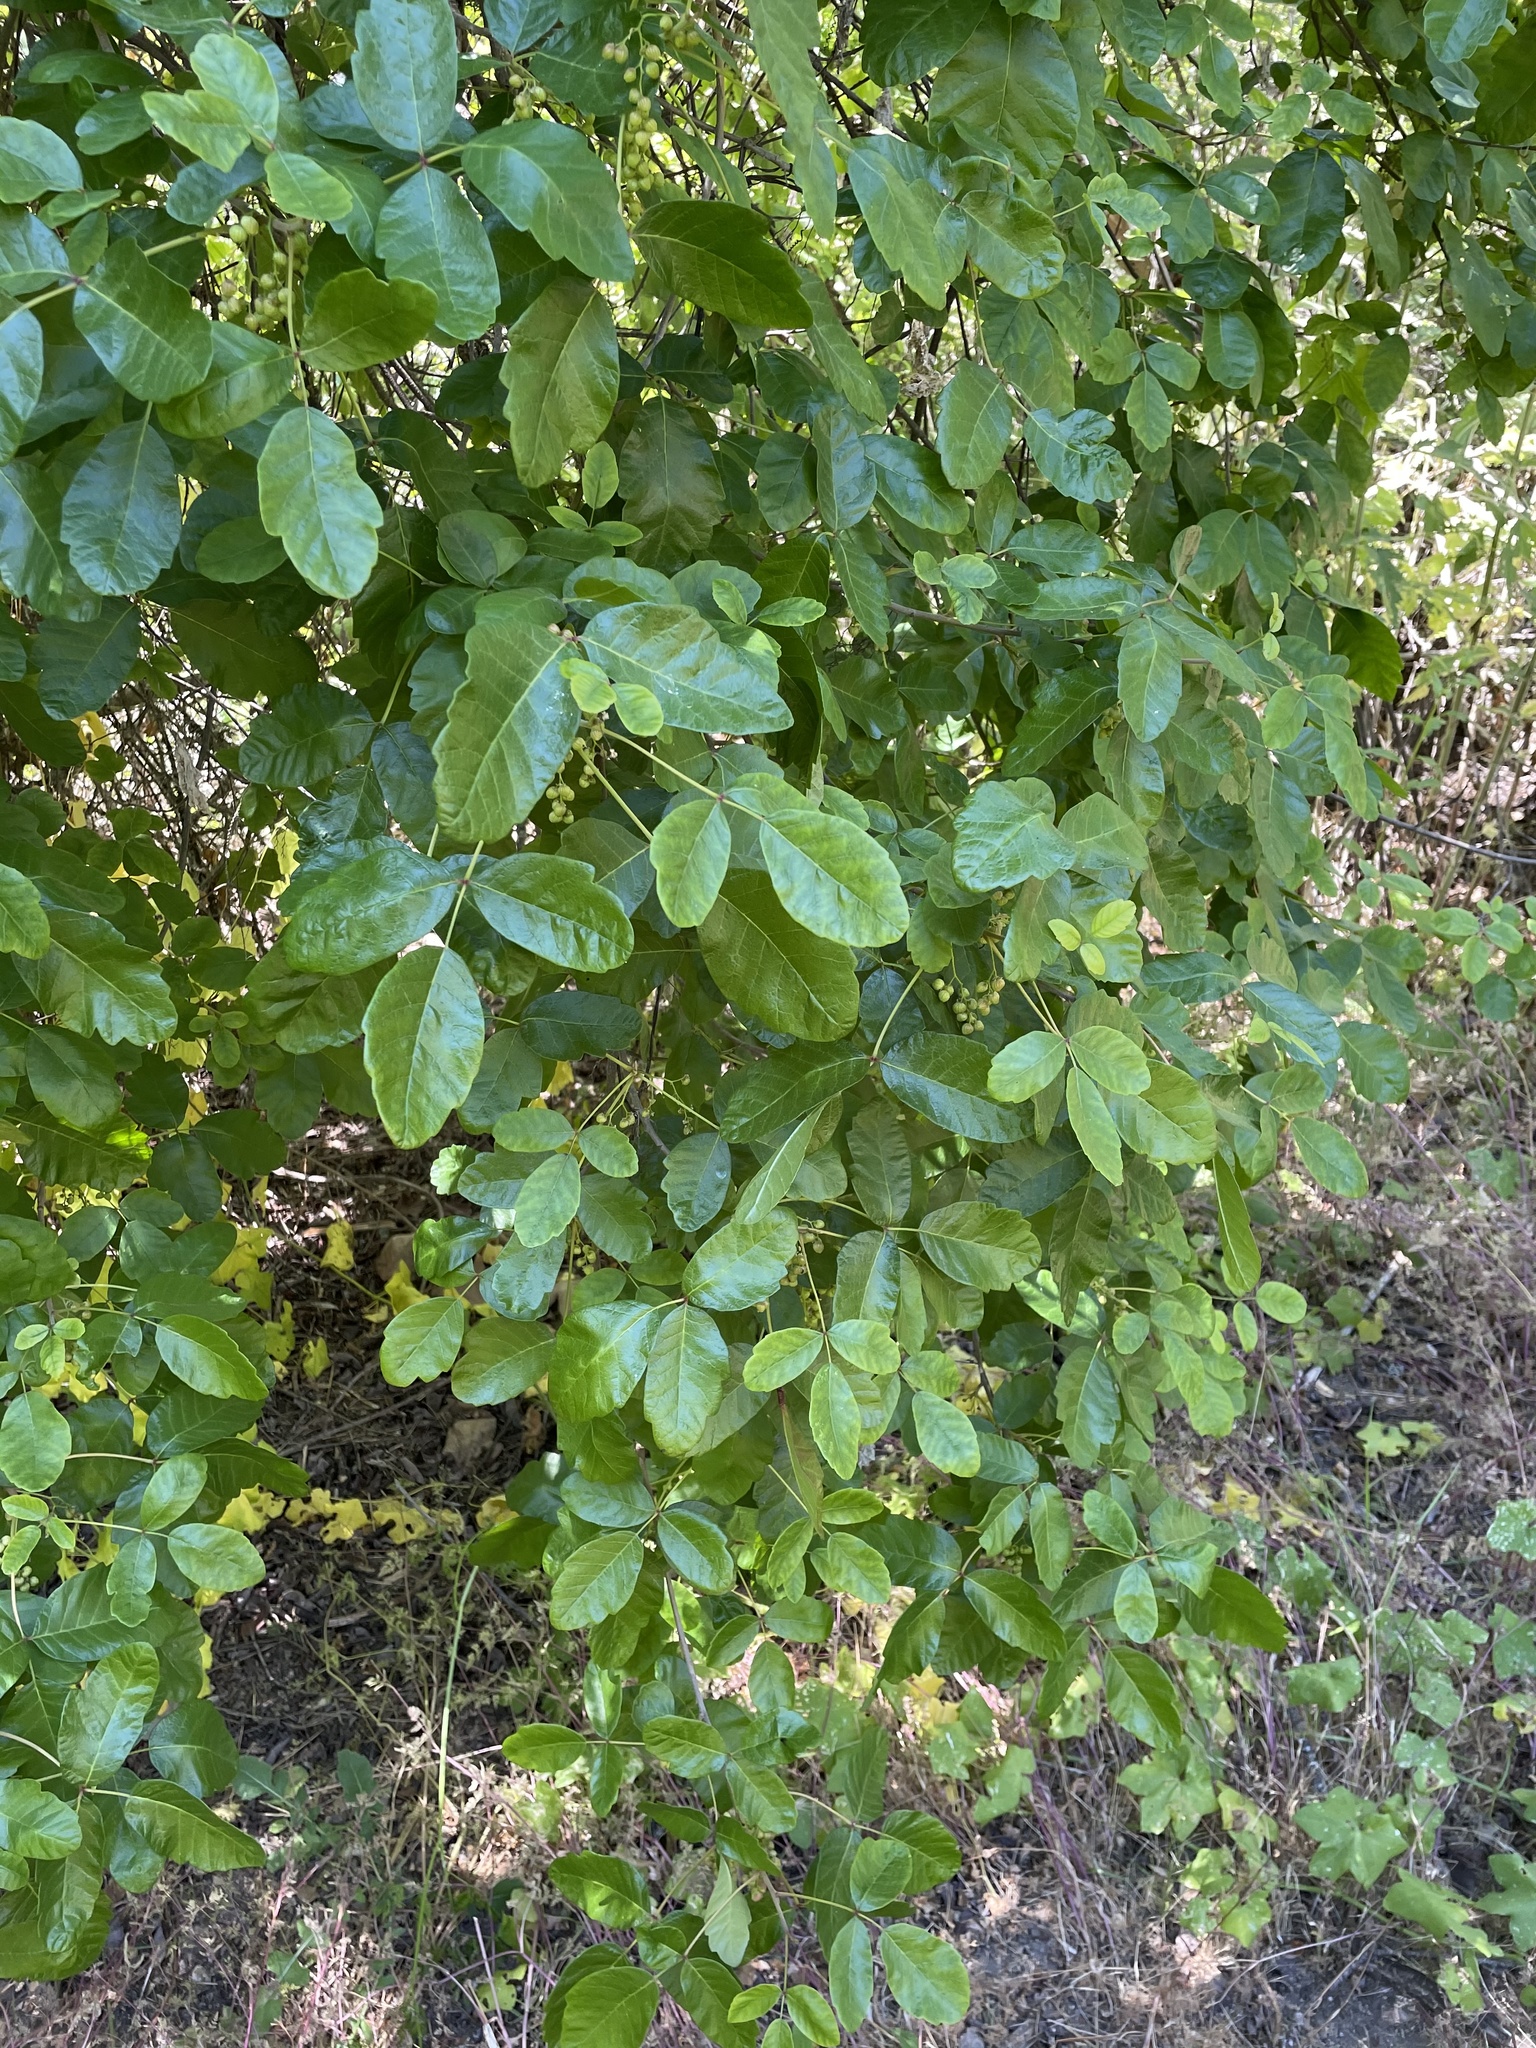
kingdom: Plantae
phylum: Tracheophyta
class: Magnoliopsida
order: Sapindales
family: Anacardiaceae
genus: Toxicodendron
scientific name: Toxicodendron diversilobum
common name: Pacific poison-oak
